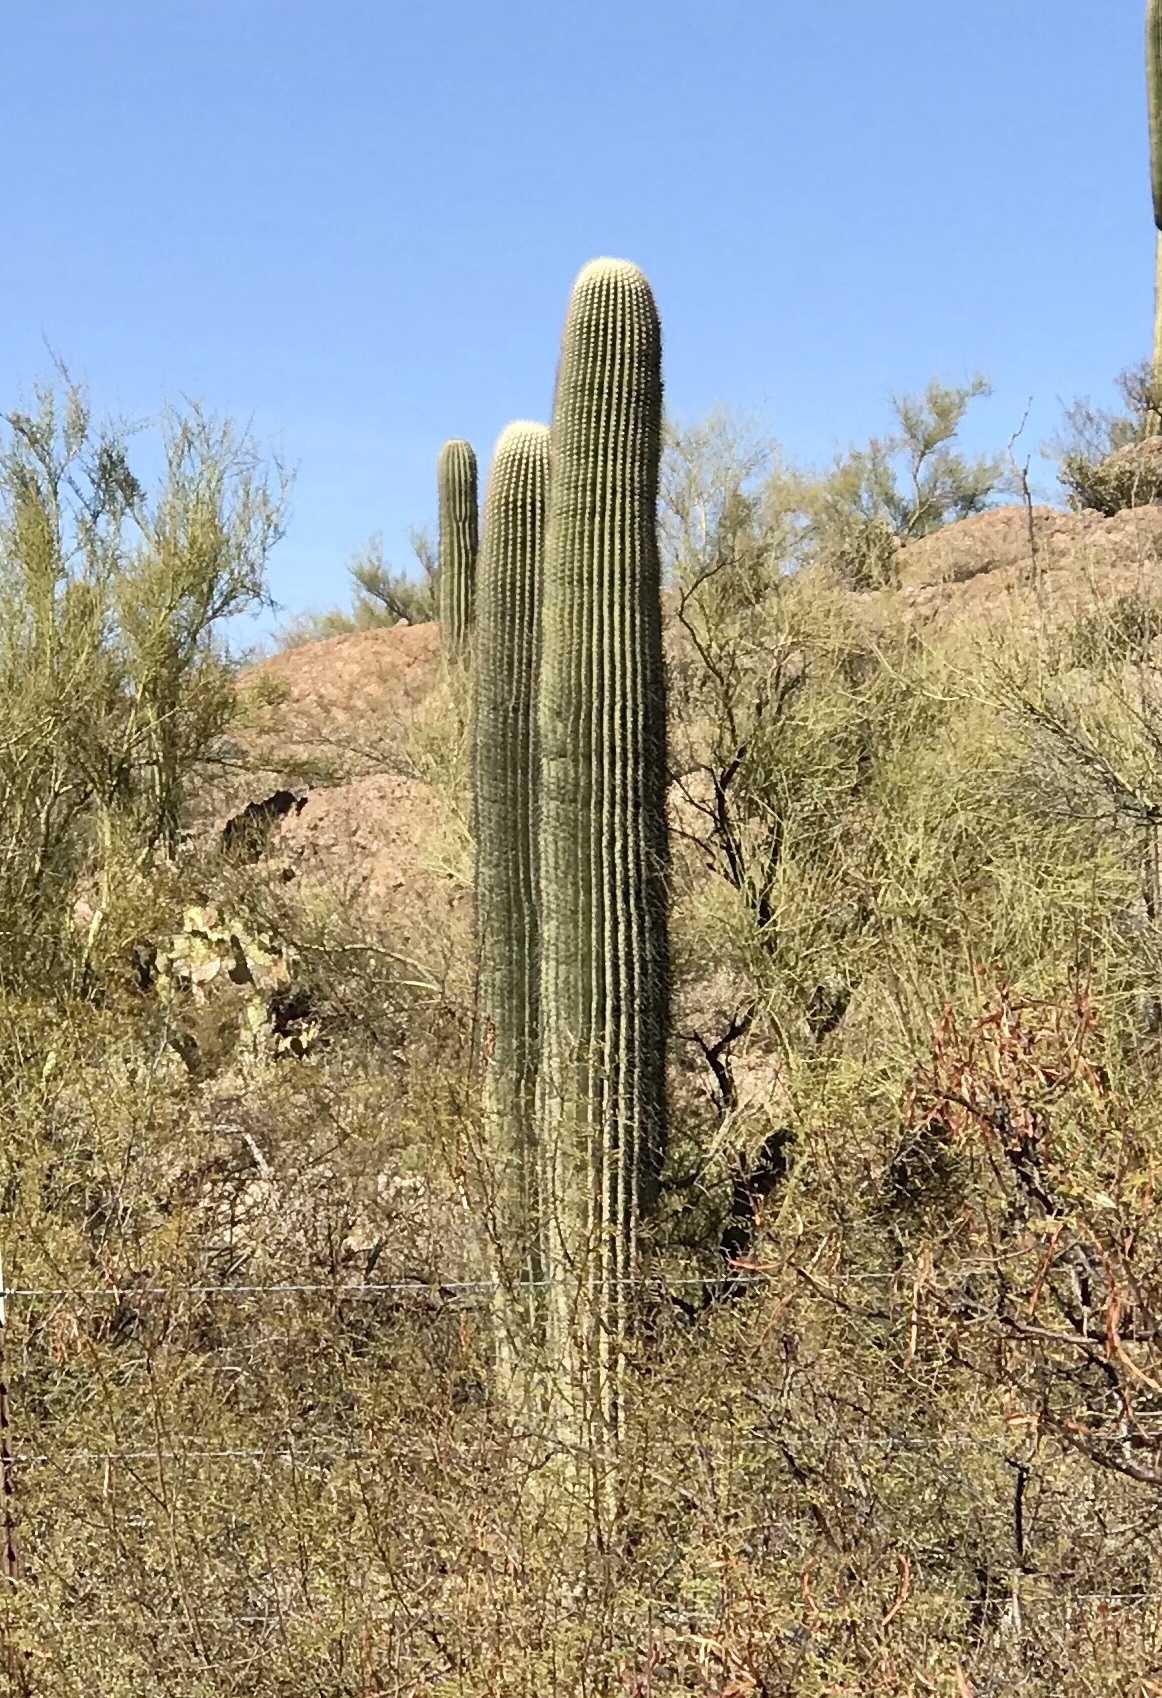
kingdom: Plantae
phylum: Tracheophyta
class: Magnoliopsida
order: Caryophyllales
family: Cactaceae
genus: Carnegiea
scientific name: Carnegiea gigantea
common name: Saguaro
